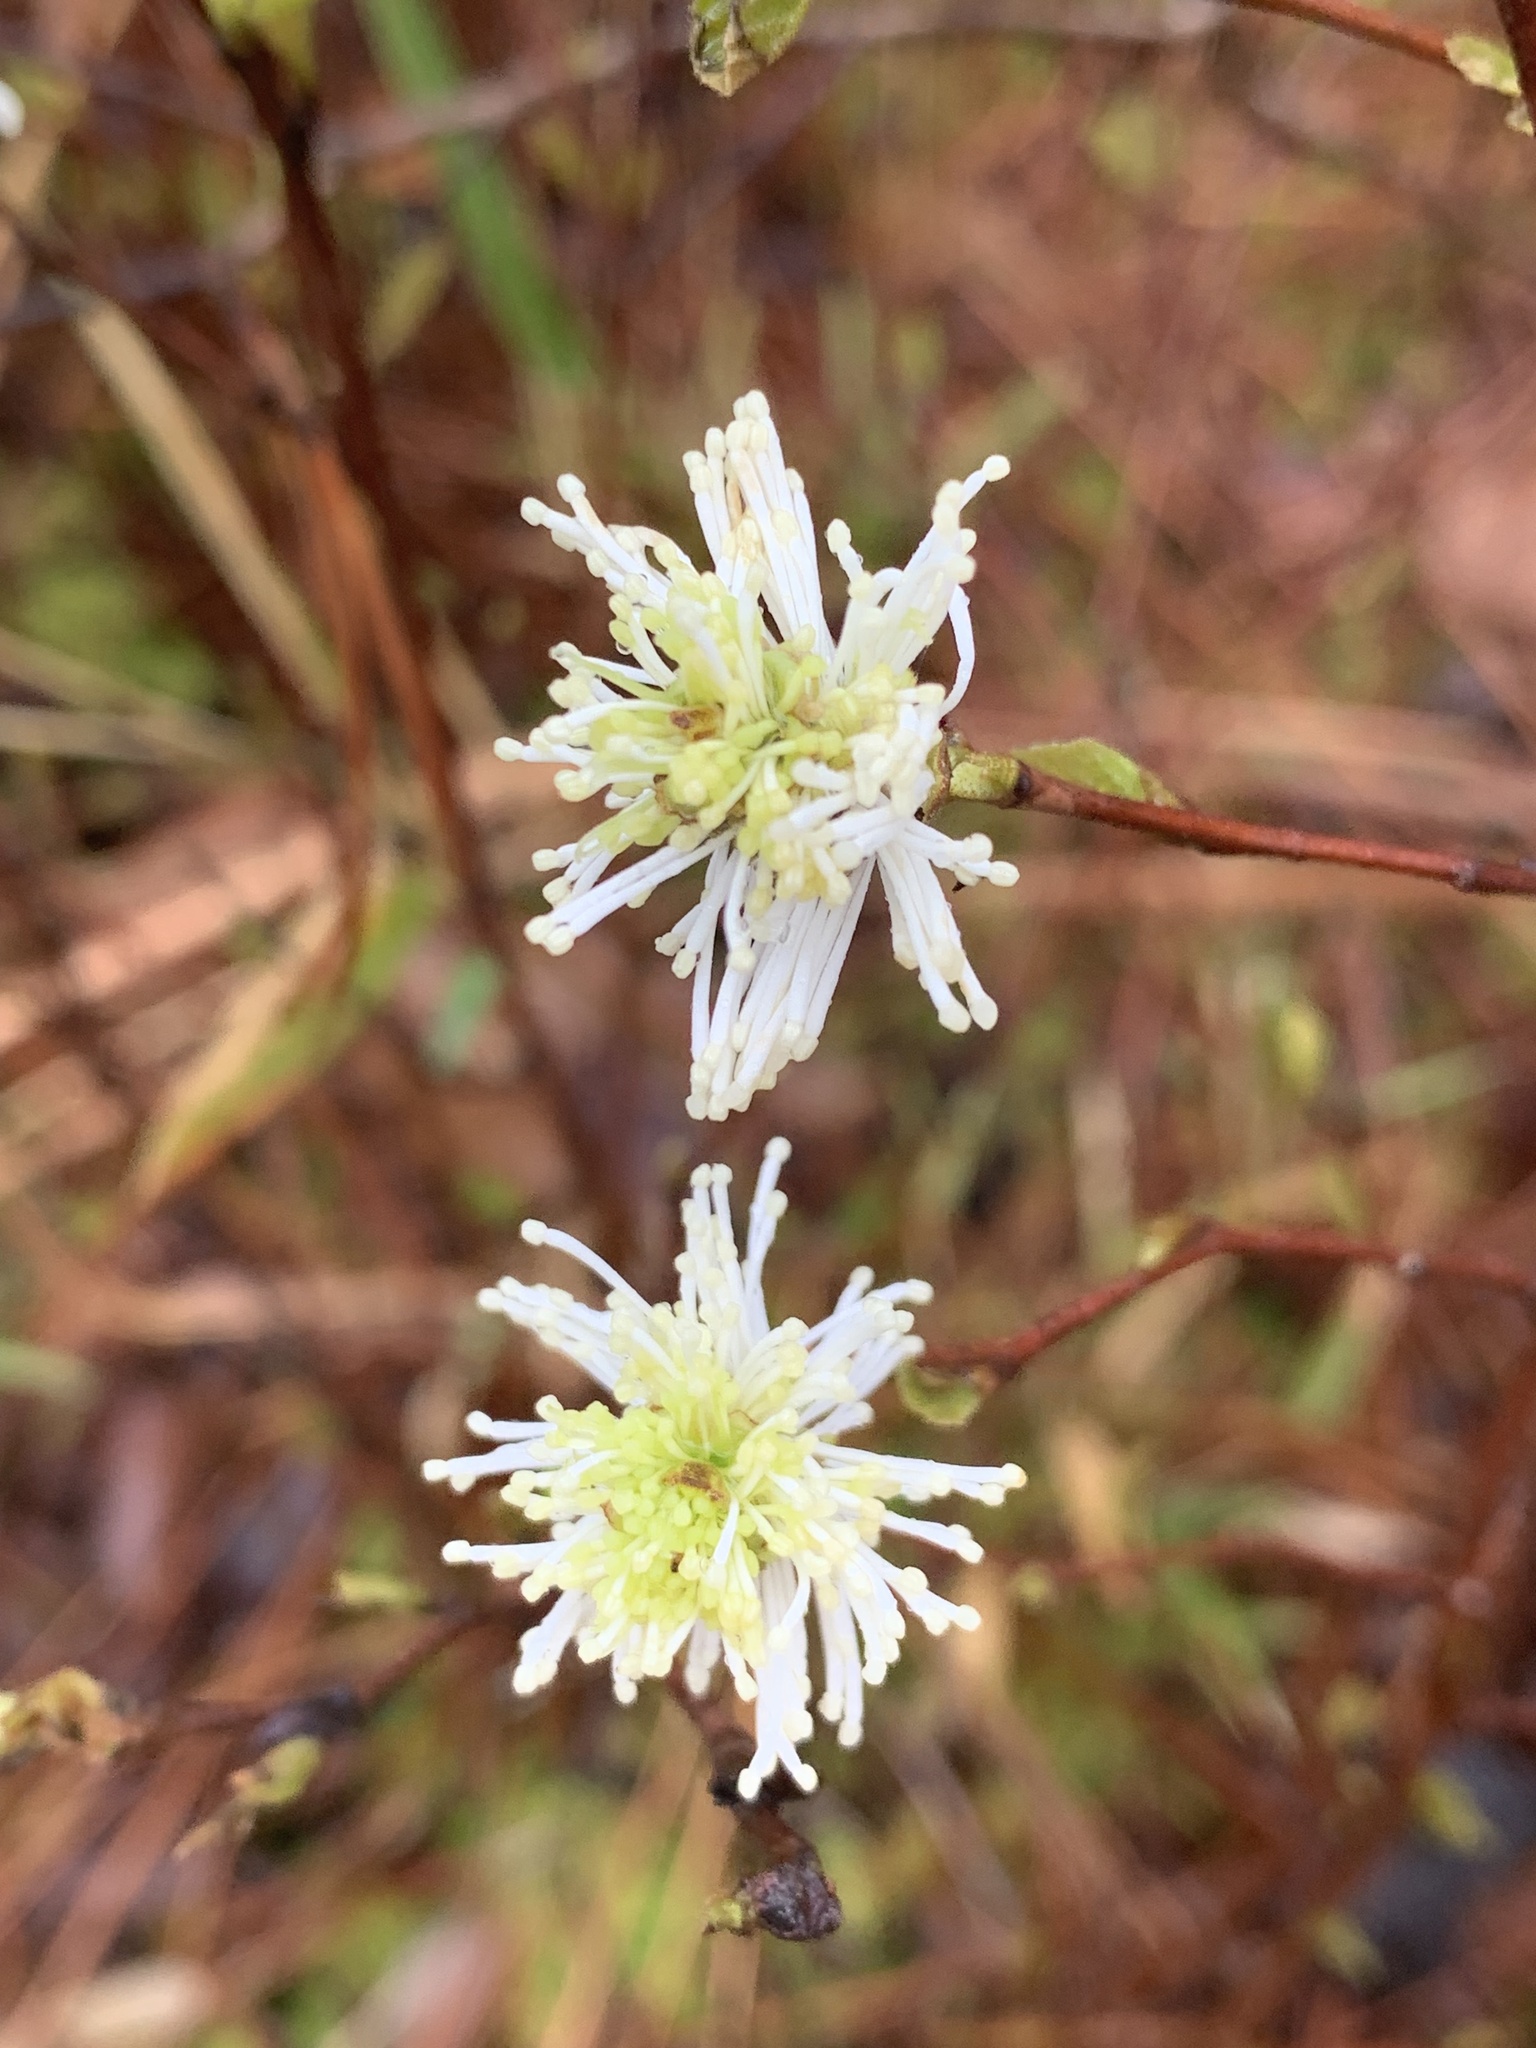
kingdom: Plantae
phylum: Tracheophyta
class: Magnoliopsida
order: Saxifragales
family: Hamamelidaceae
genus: Fothergilla
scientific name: Fothergilla gardenii
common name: Dwarf witch-alder
